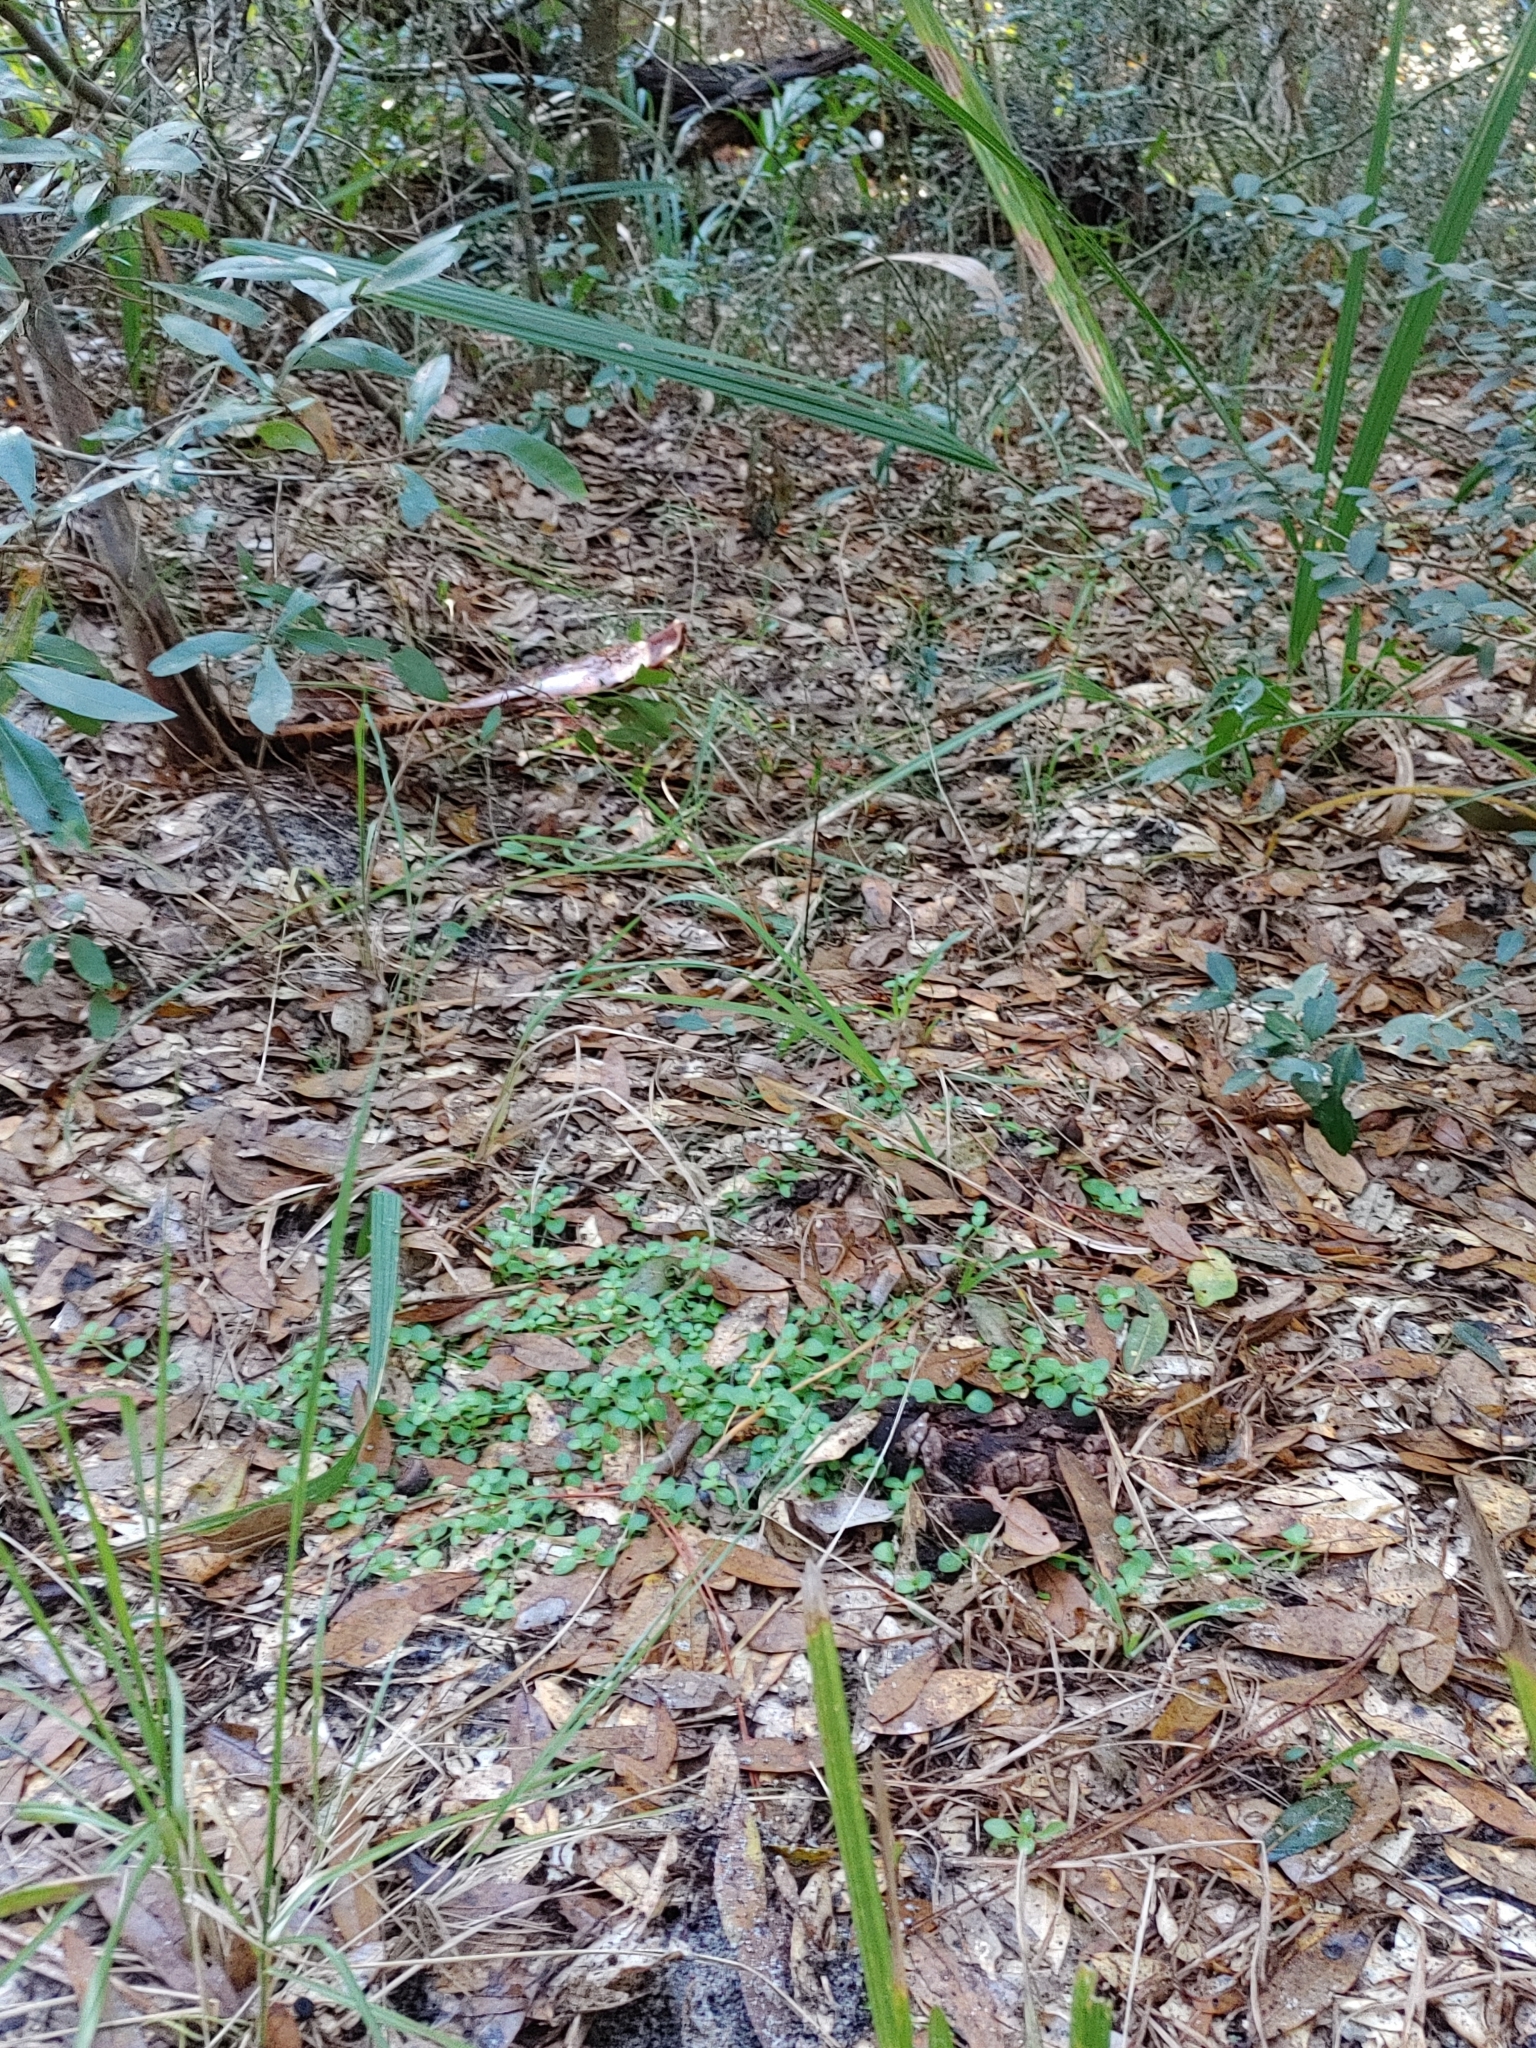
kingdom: Plantae
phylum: Tracheophyta
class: Magnoliopsida
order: Gentianales
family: Rubiaceae
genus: Houstonia
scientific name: Houstonia procumbens
